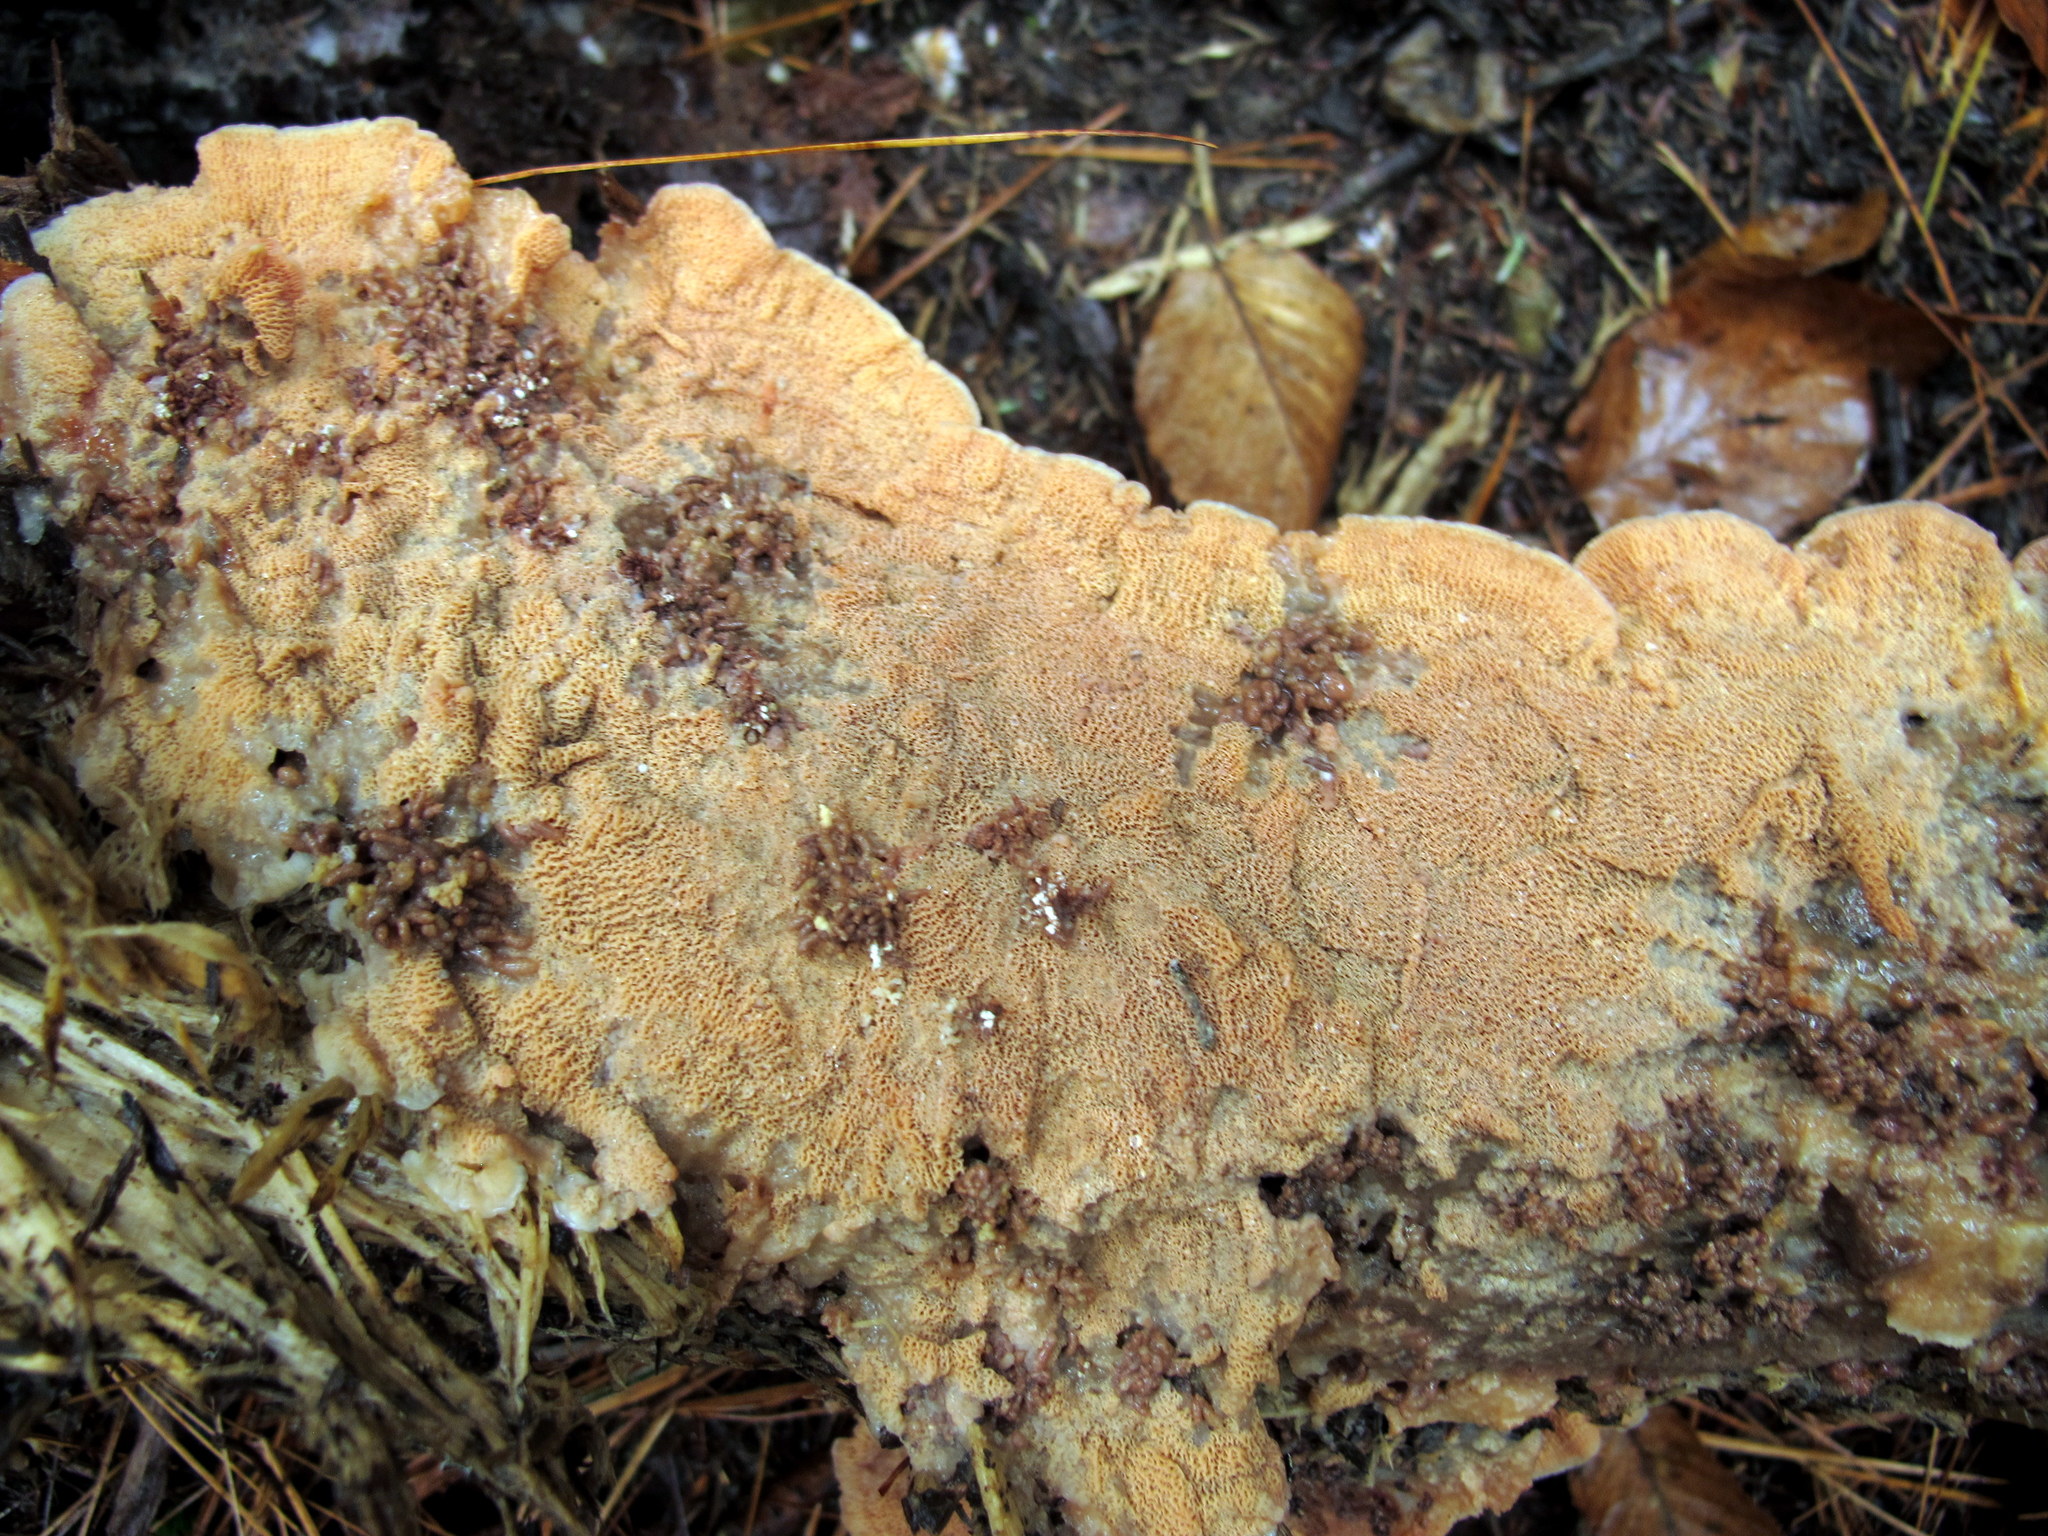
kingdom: Fungi
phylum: Basidiomycota
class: Agaricomycetes
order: Polyporales
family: Meruliaceae
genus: Phlebia
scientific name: Phlebia tremellosa
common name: Jelly rot
